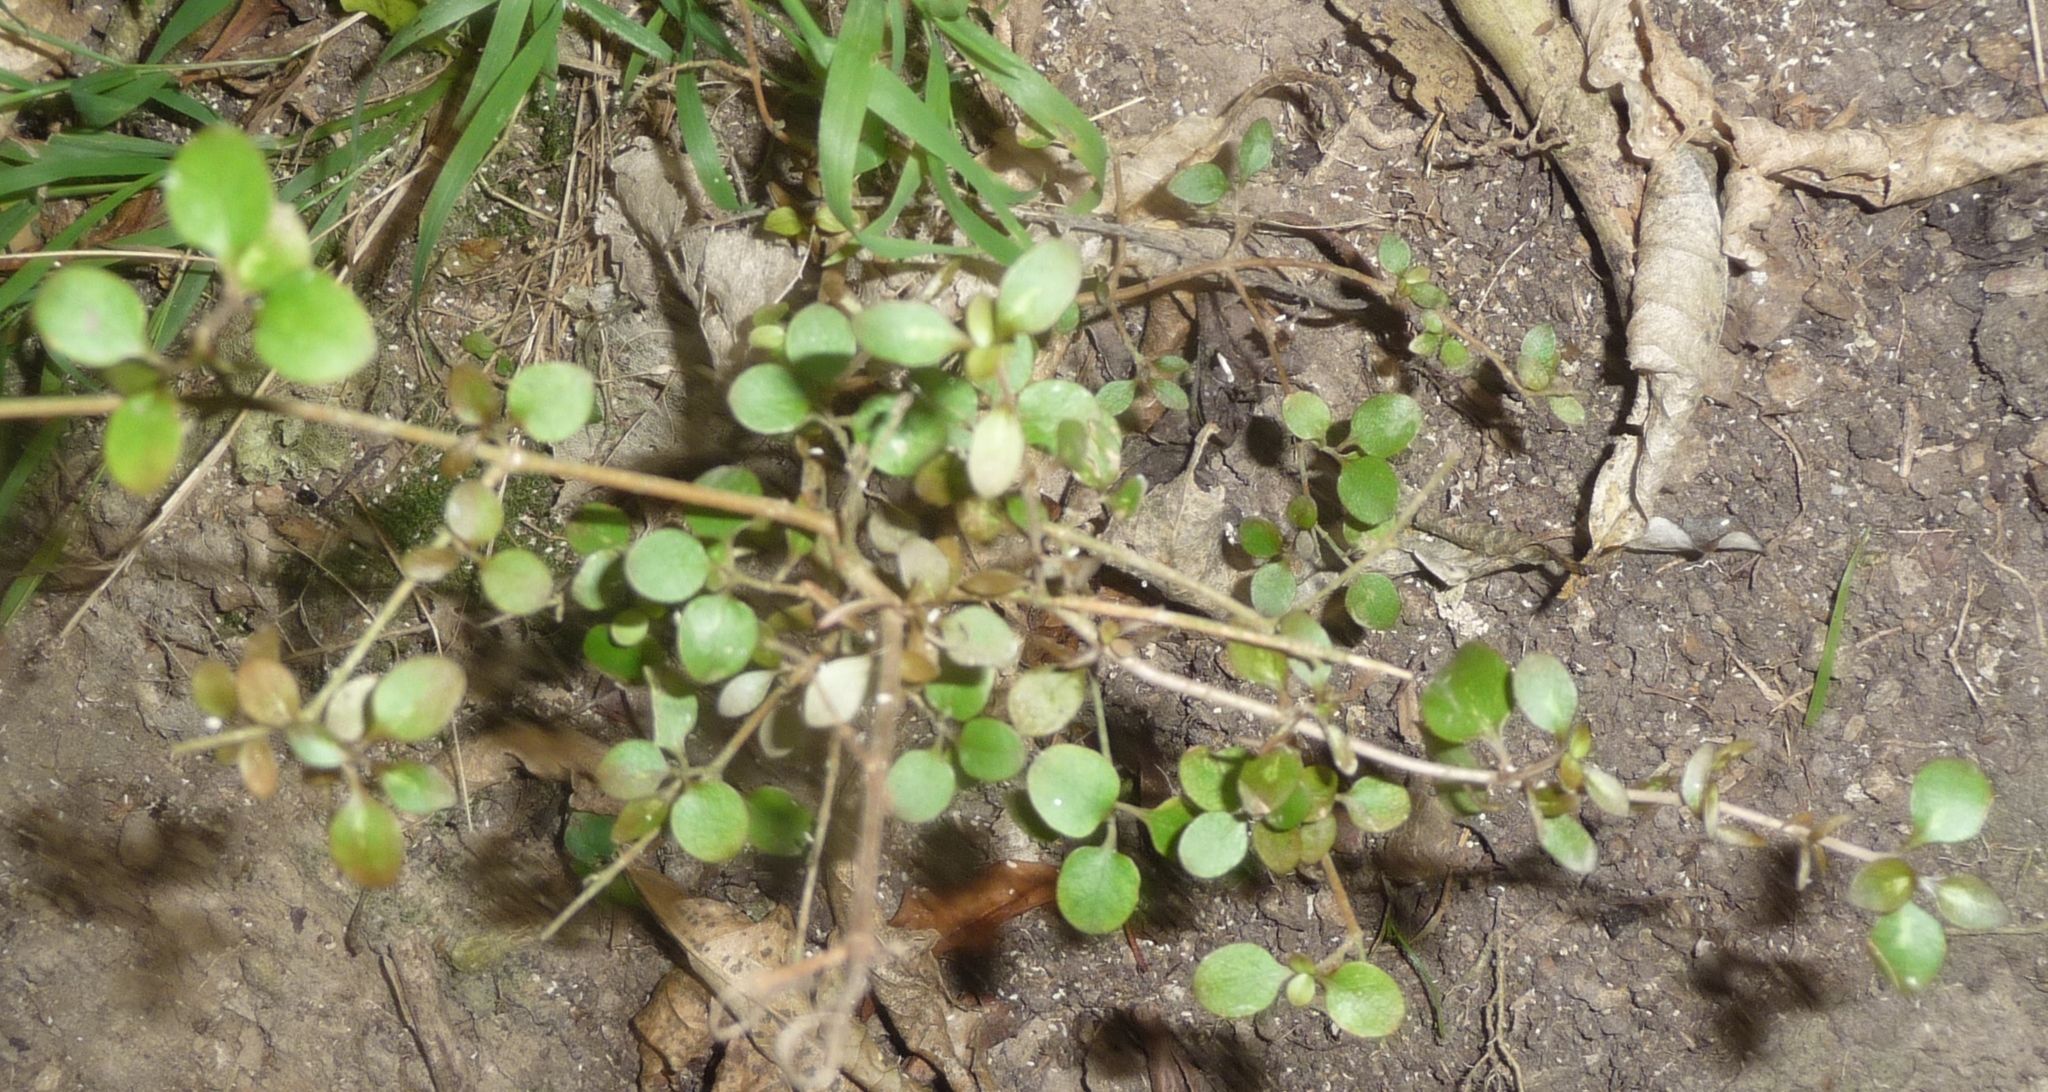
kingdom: Plantae
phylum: Tracheophyta
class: Magnoliopsida
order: Gentianales
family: Rubiaceae
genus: Coprosma
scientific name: Coprosma rhamnoides
